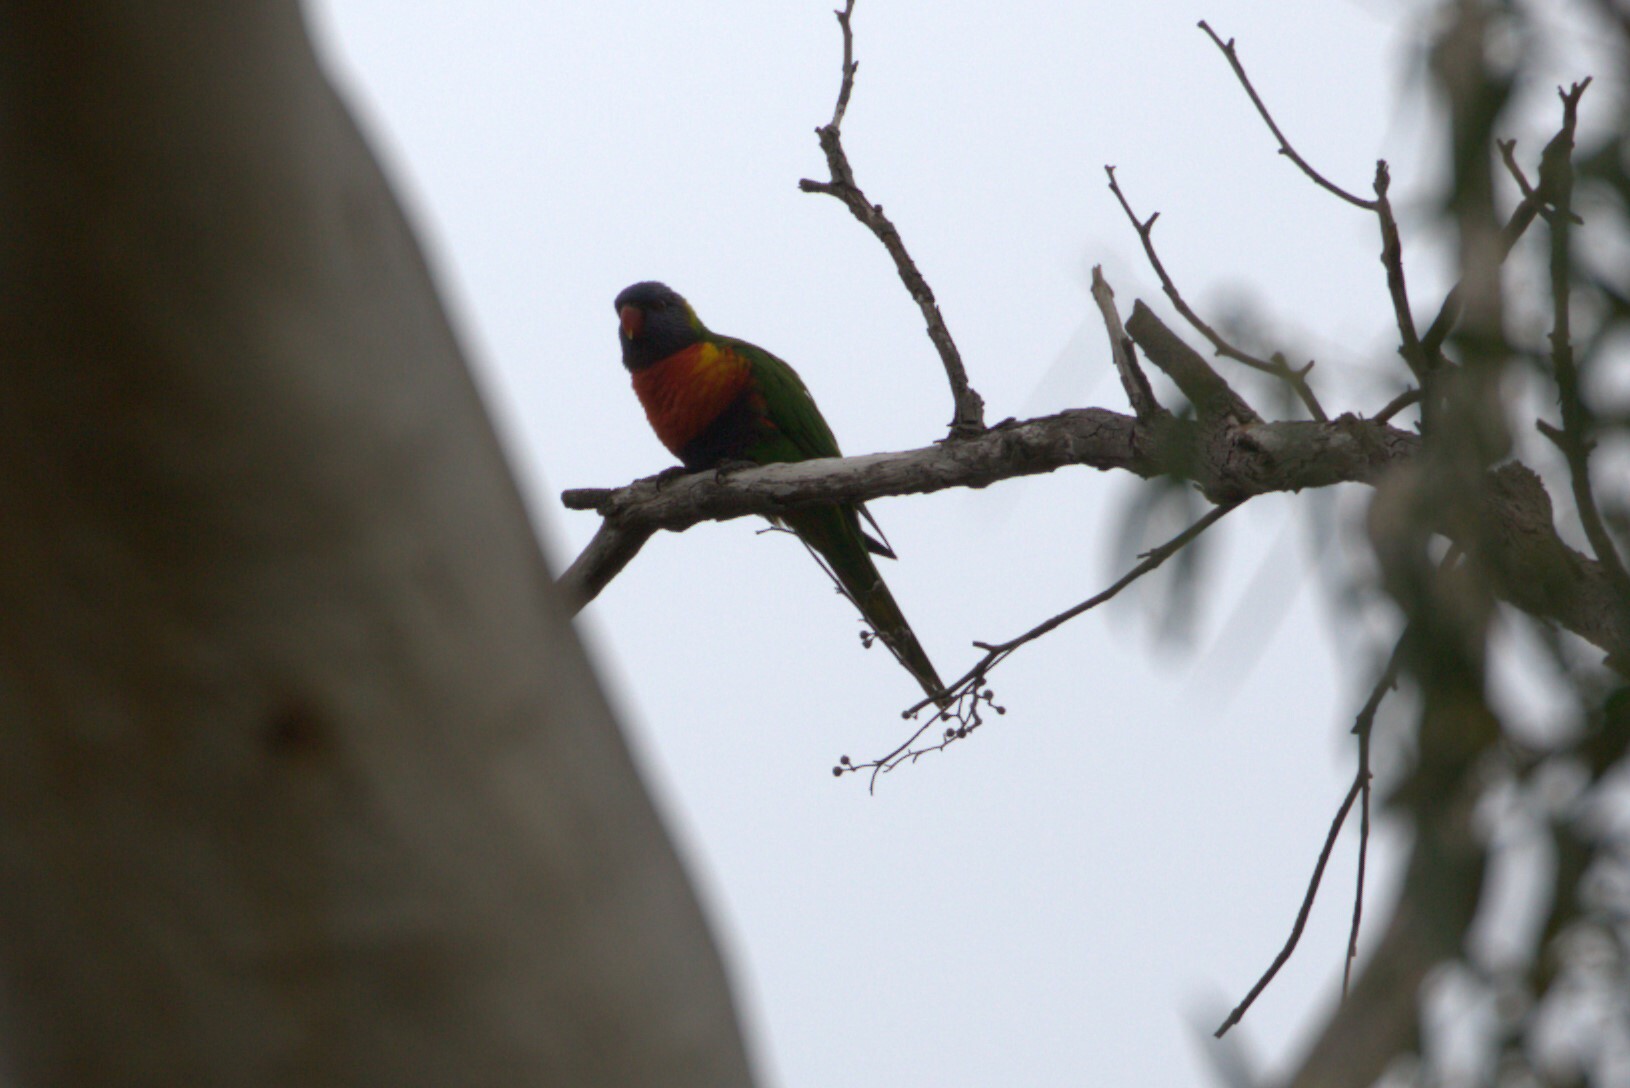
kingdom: Animalia
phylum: Chordata
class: Aves
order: Psittaciformes
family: Psittacidae
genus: Trichoglossus
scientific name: Trichoglossus haematodus
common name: Coconut lorikeet
